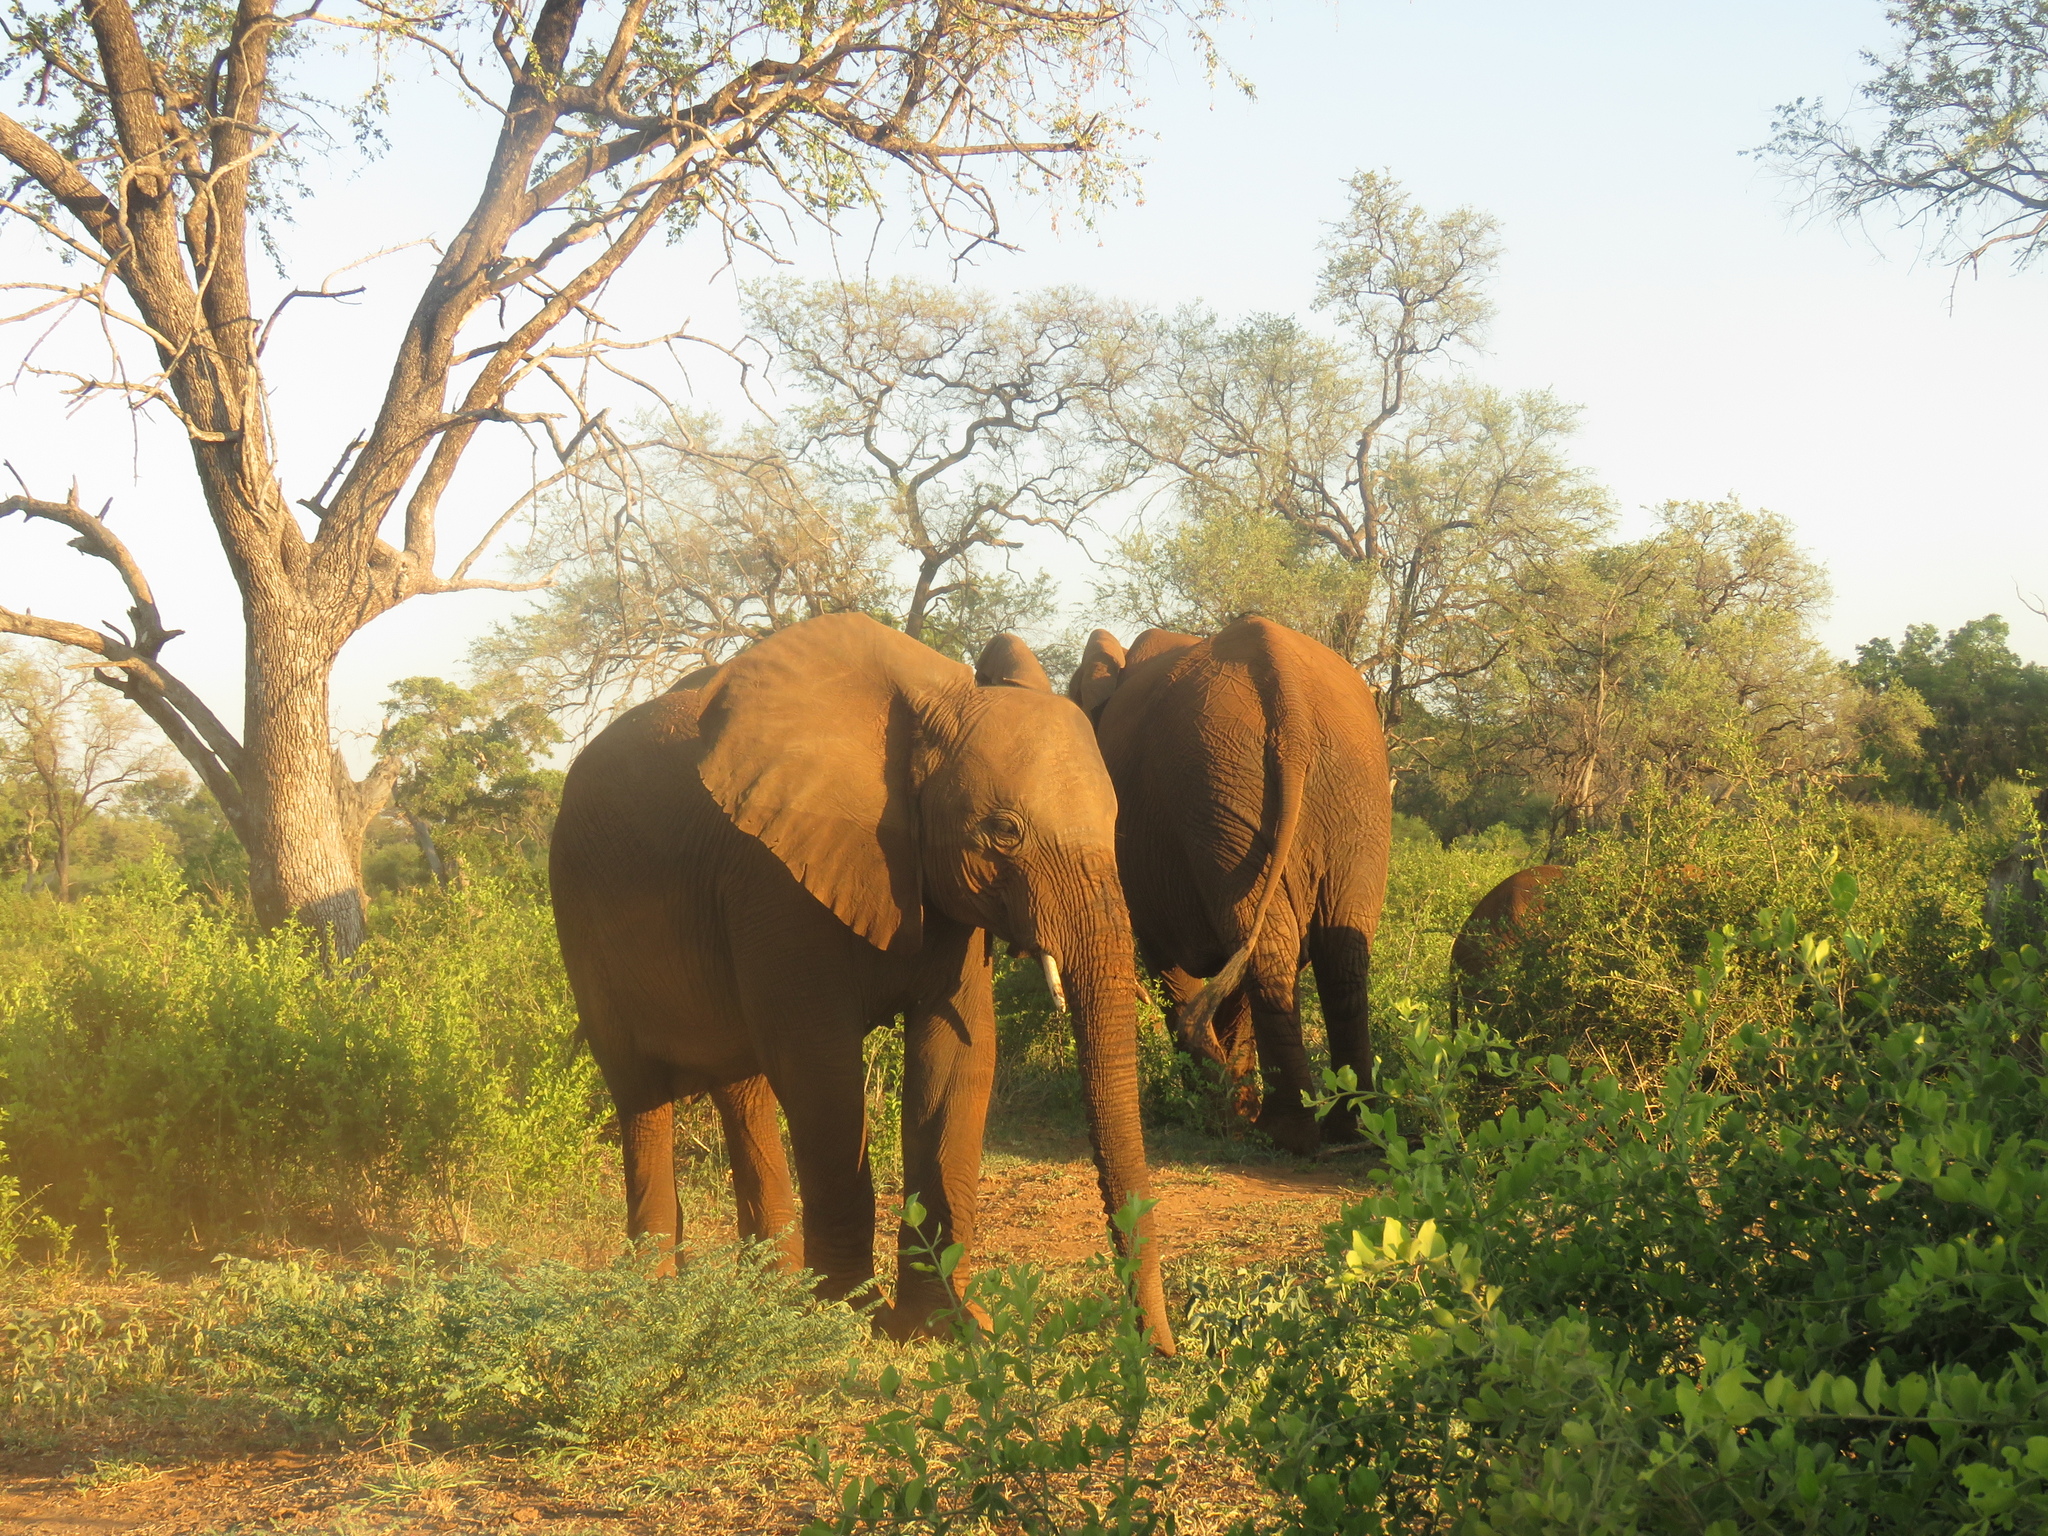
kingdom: Animalia
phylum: Chordata
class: Mammalia
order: Proboscidea
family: Elephantidae
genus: Loxodonta
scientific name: Loxodonta africana
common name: African elephant
